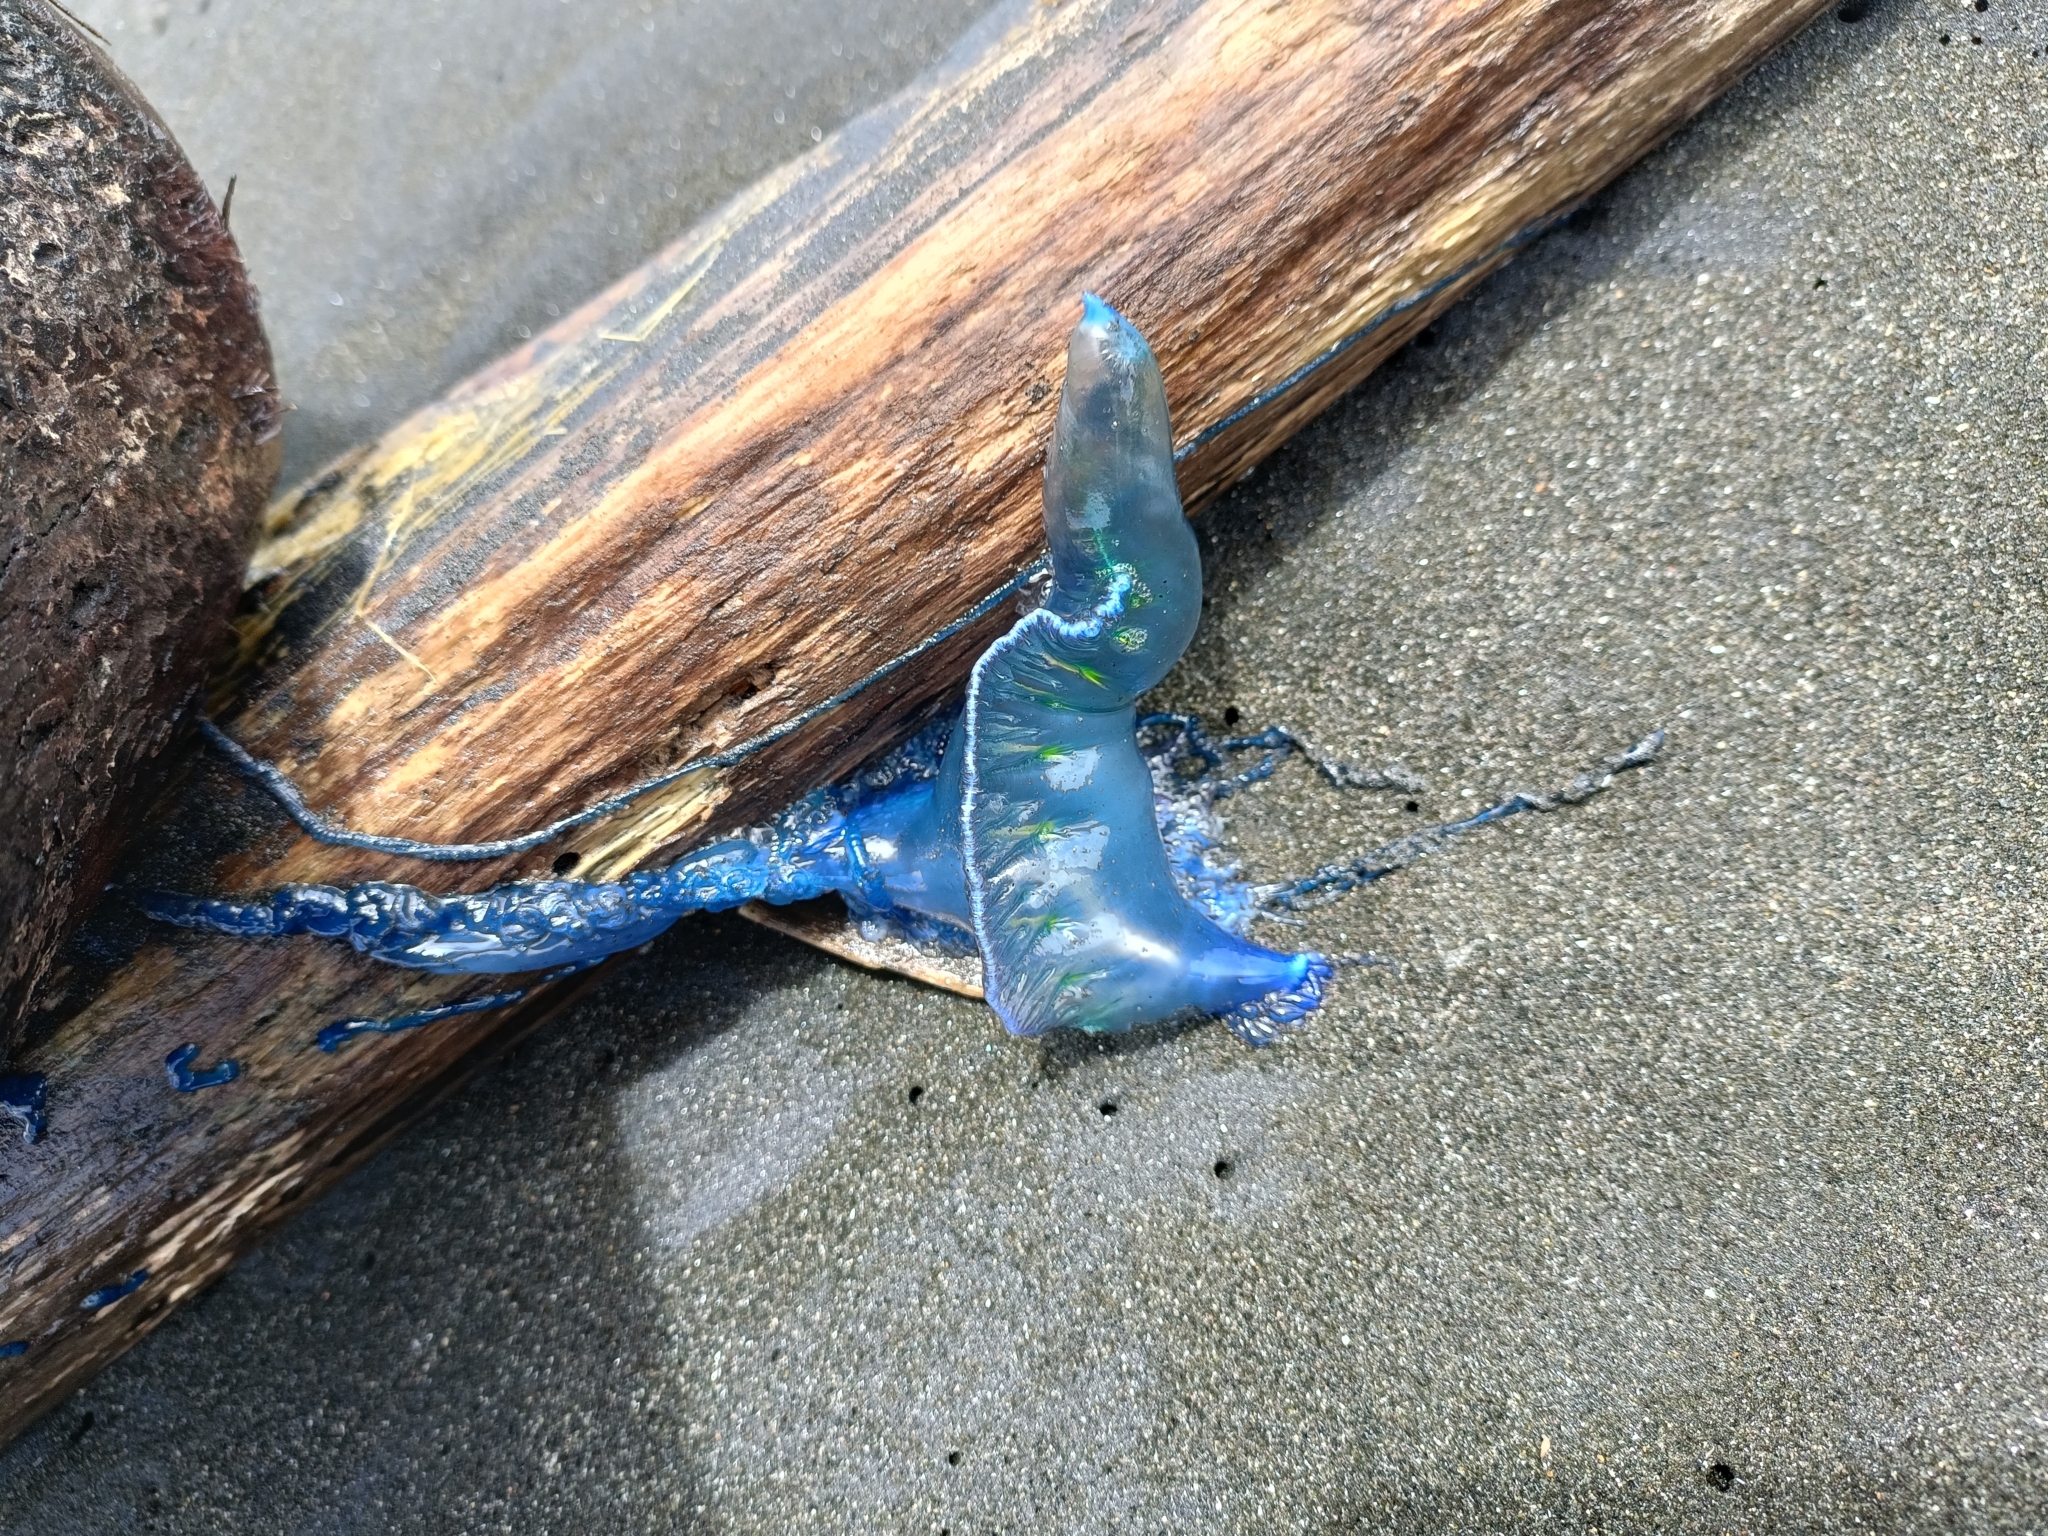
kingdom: Animalia
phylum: Cnidaria
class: Hydrozoa
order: Siphonophorae
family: Physaliidae
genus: Physalia
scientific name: Physalia physalis
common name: Portuguese man-of-war
